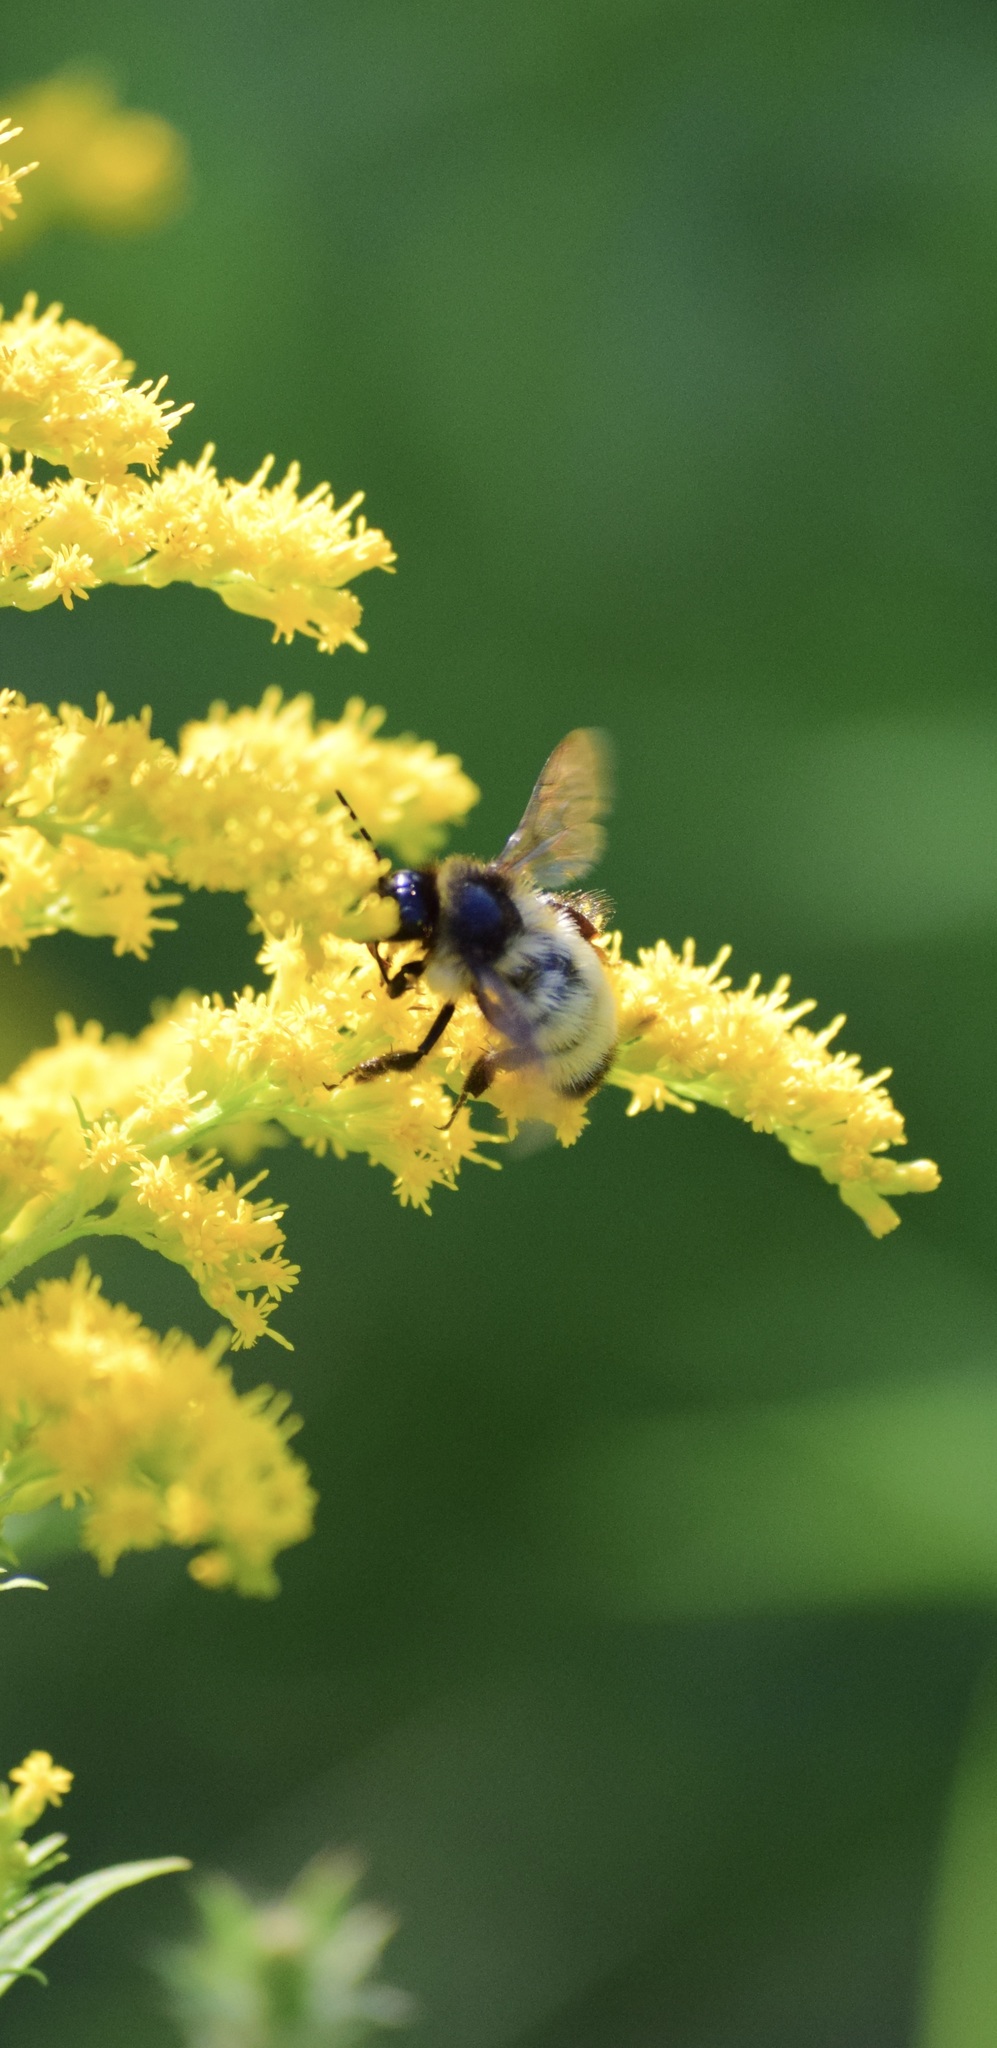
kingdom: Animalia
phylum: Arthropoda
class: Insecta
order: Hymenoptera
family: Apidae
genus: Bombus
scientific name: Bombus ternarius
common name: Tri-colored bumble bee
